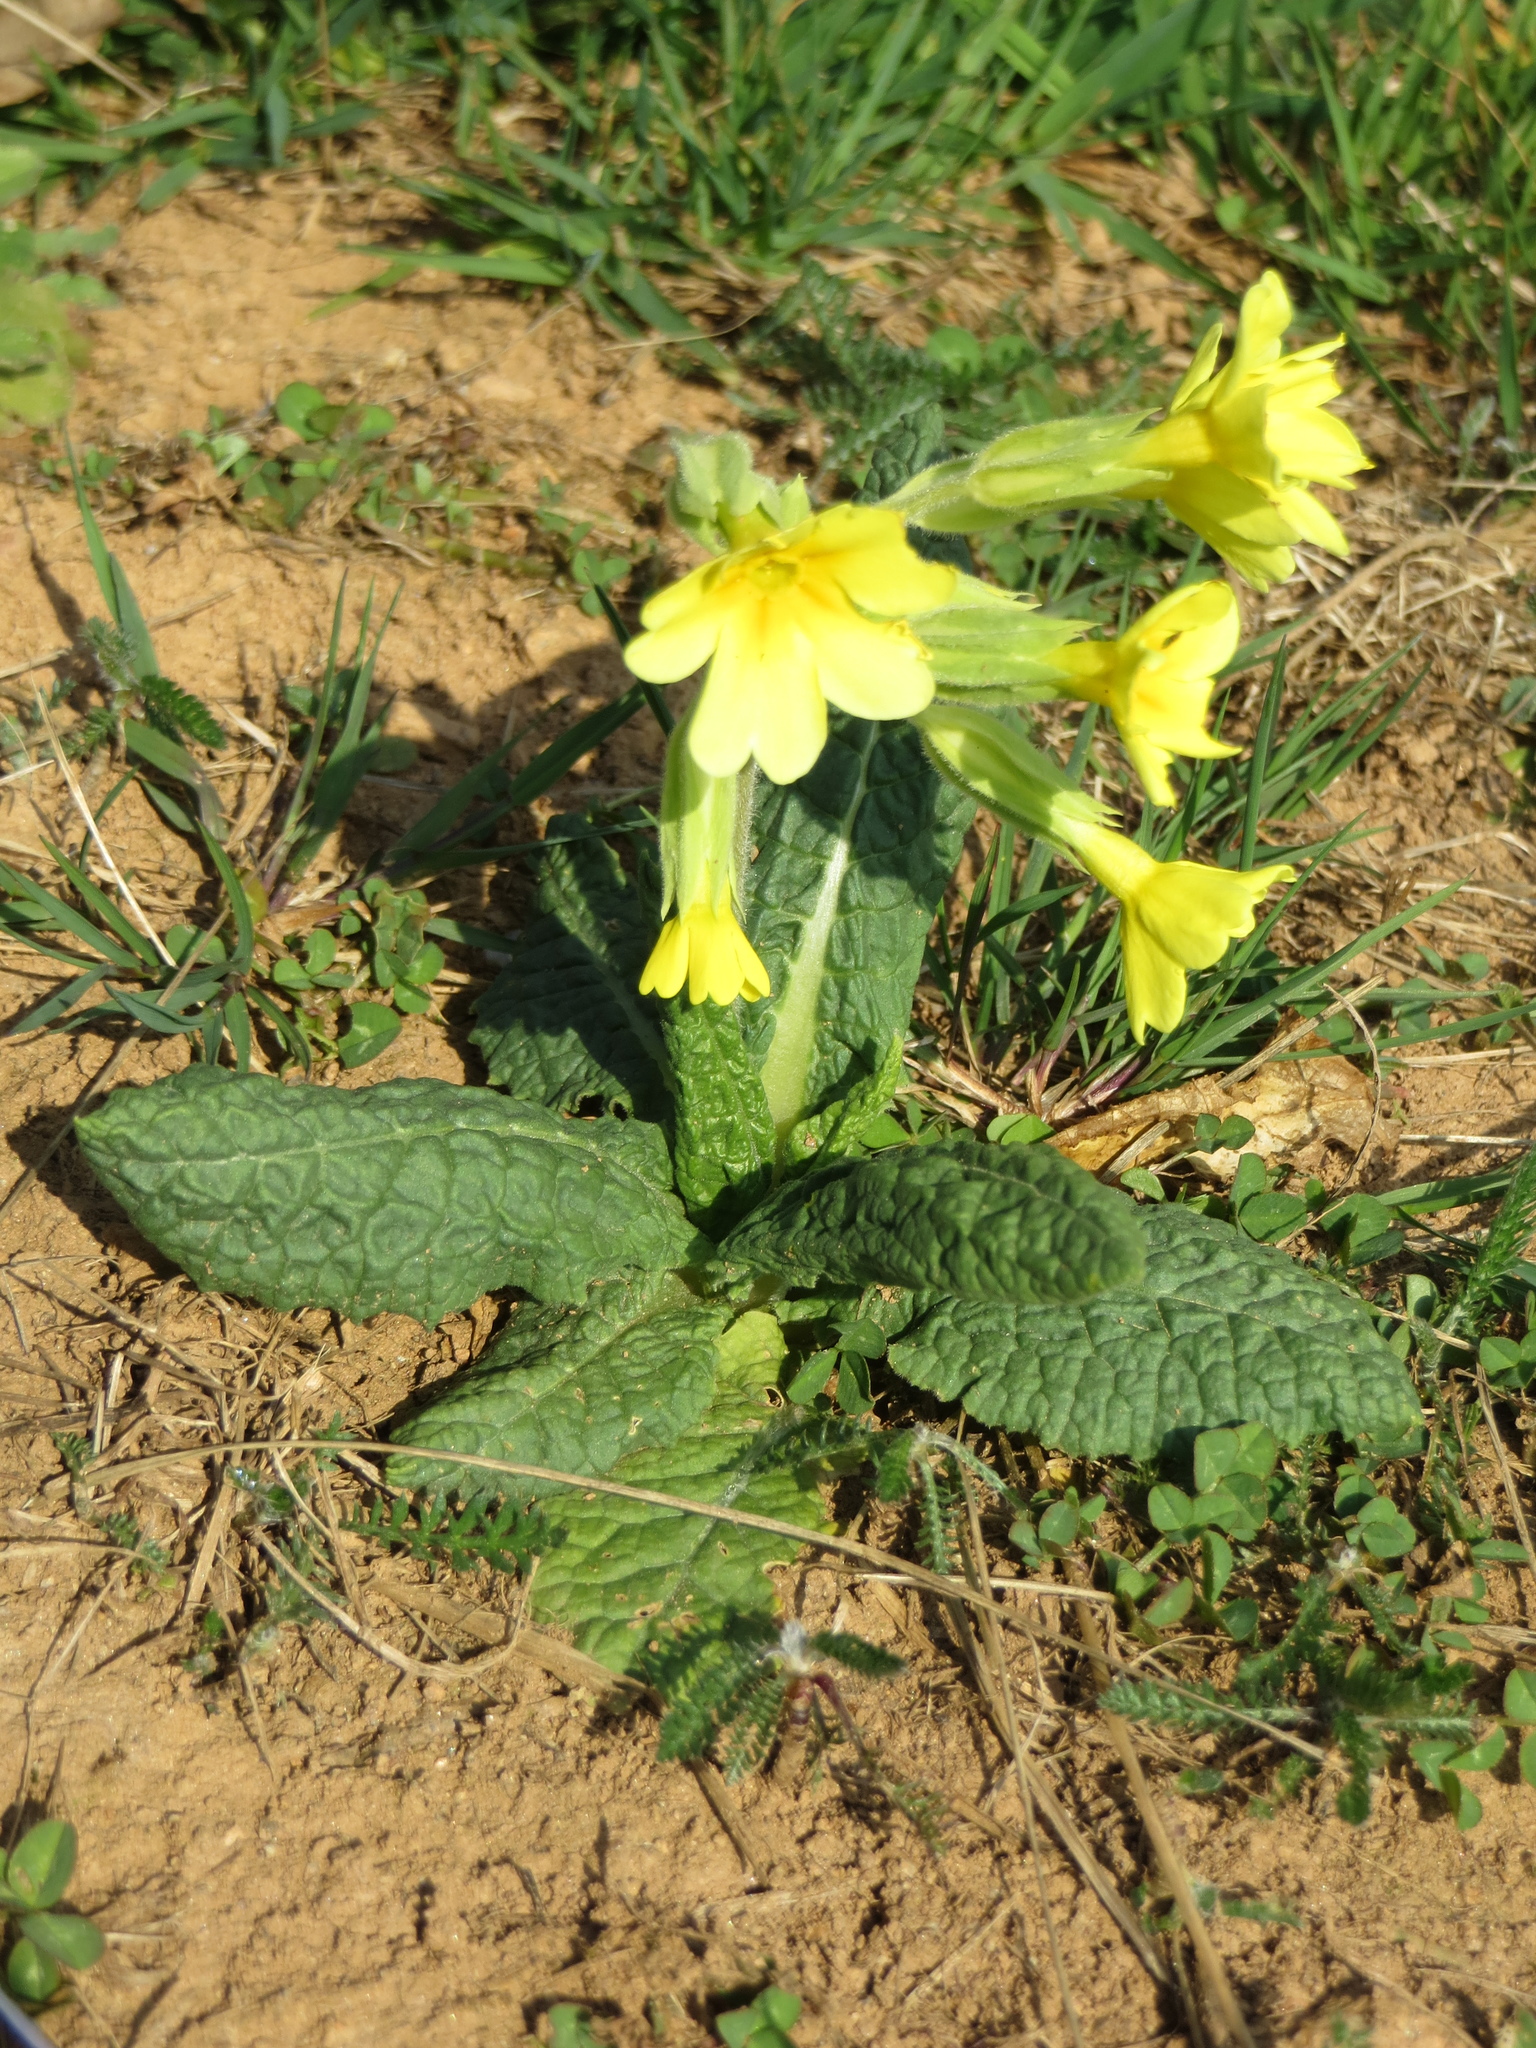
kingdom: Plantae
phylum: Tracheophyta
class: Magnoliopsida
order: Ericales
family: Primulaceae
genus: Primula
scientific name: Primula veris
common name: Cowslip
